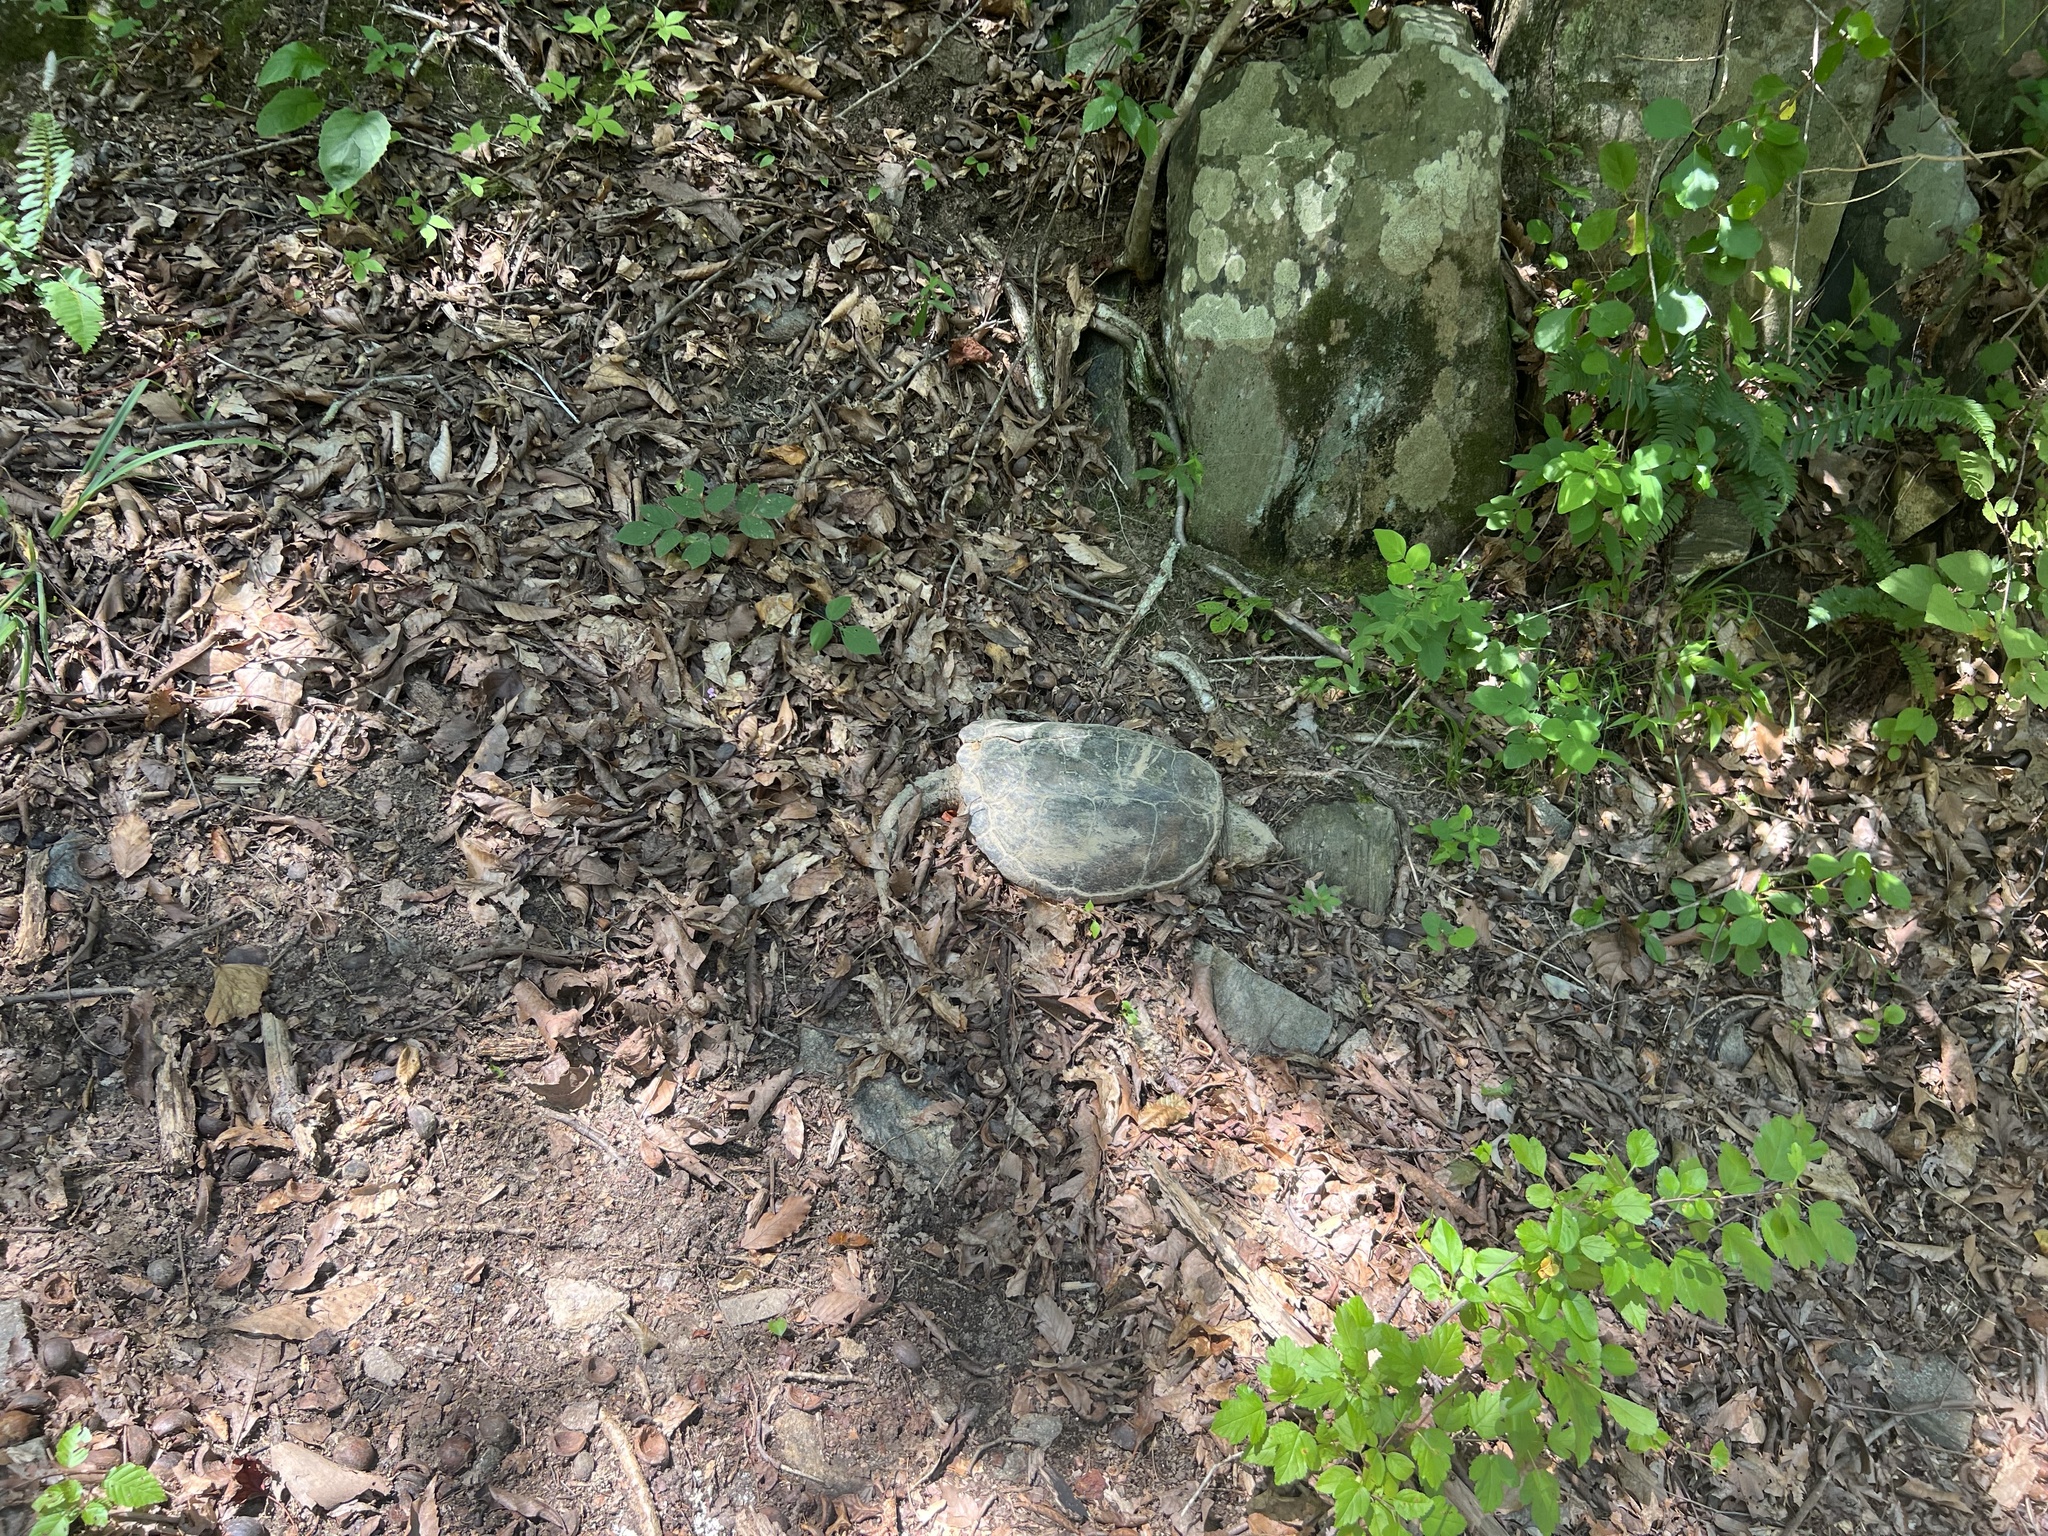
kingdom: Animalia
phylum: Chordata
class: Testudines
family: Chelydridae
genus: Chelydra
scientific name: Chelydra serpentina
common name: Common snapping turtle
